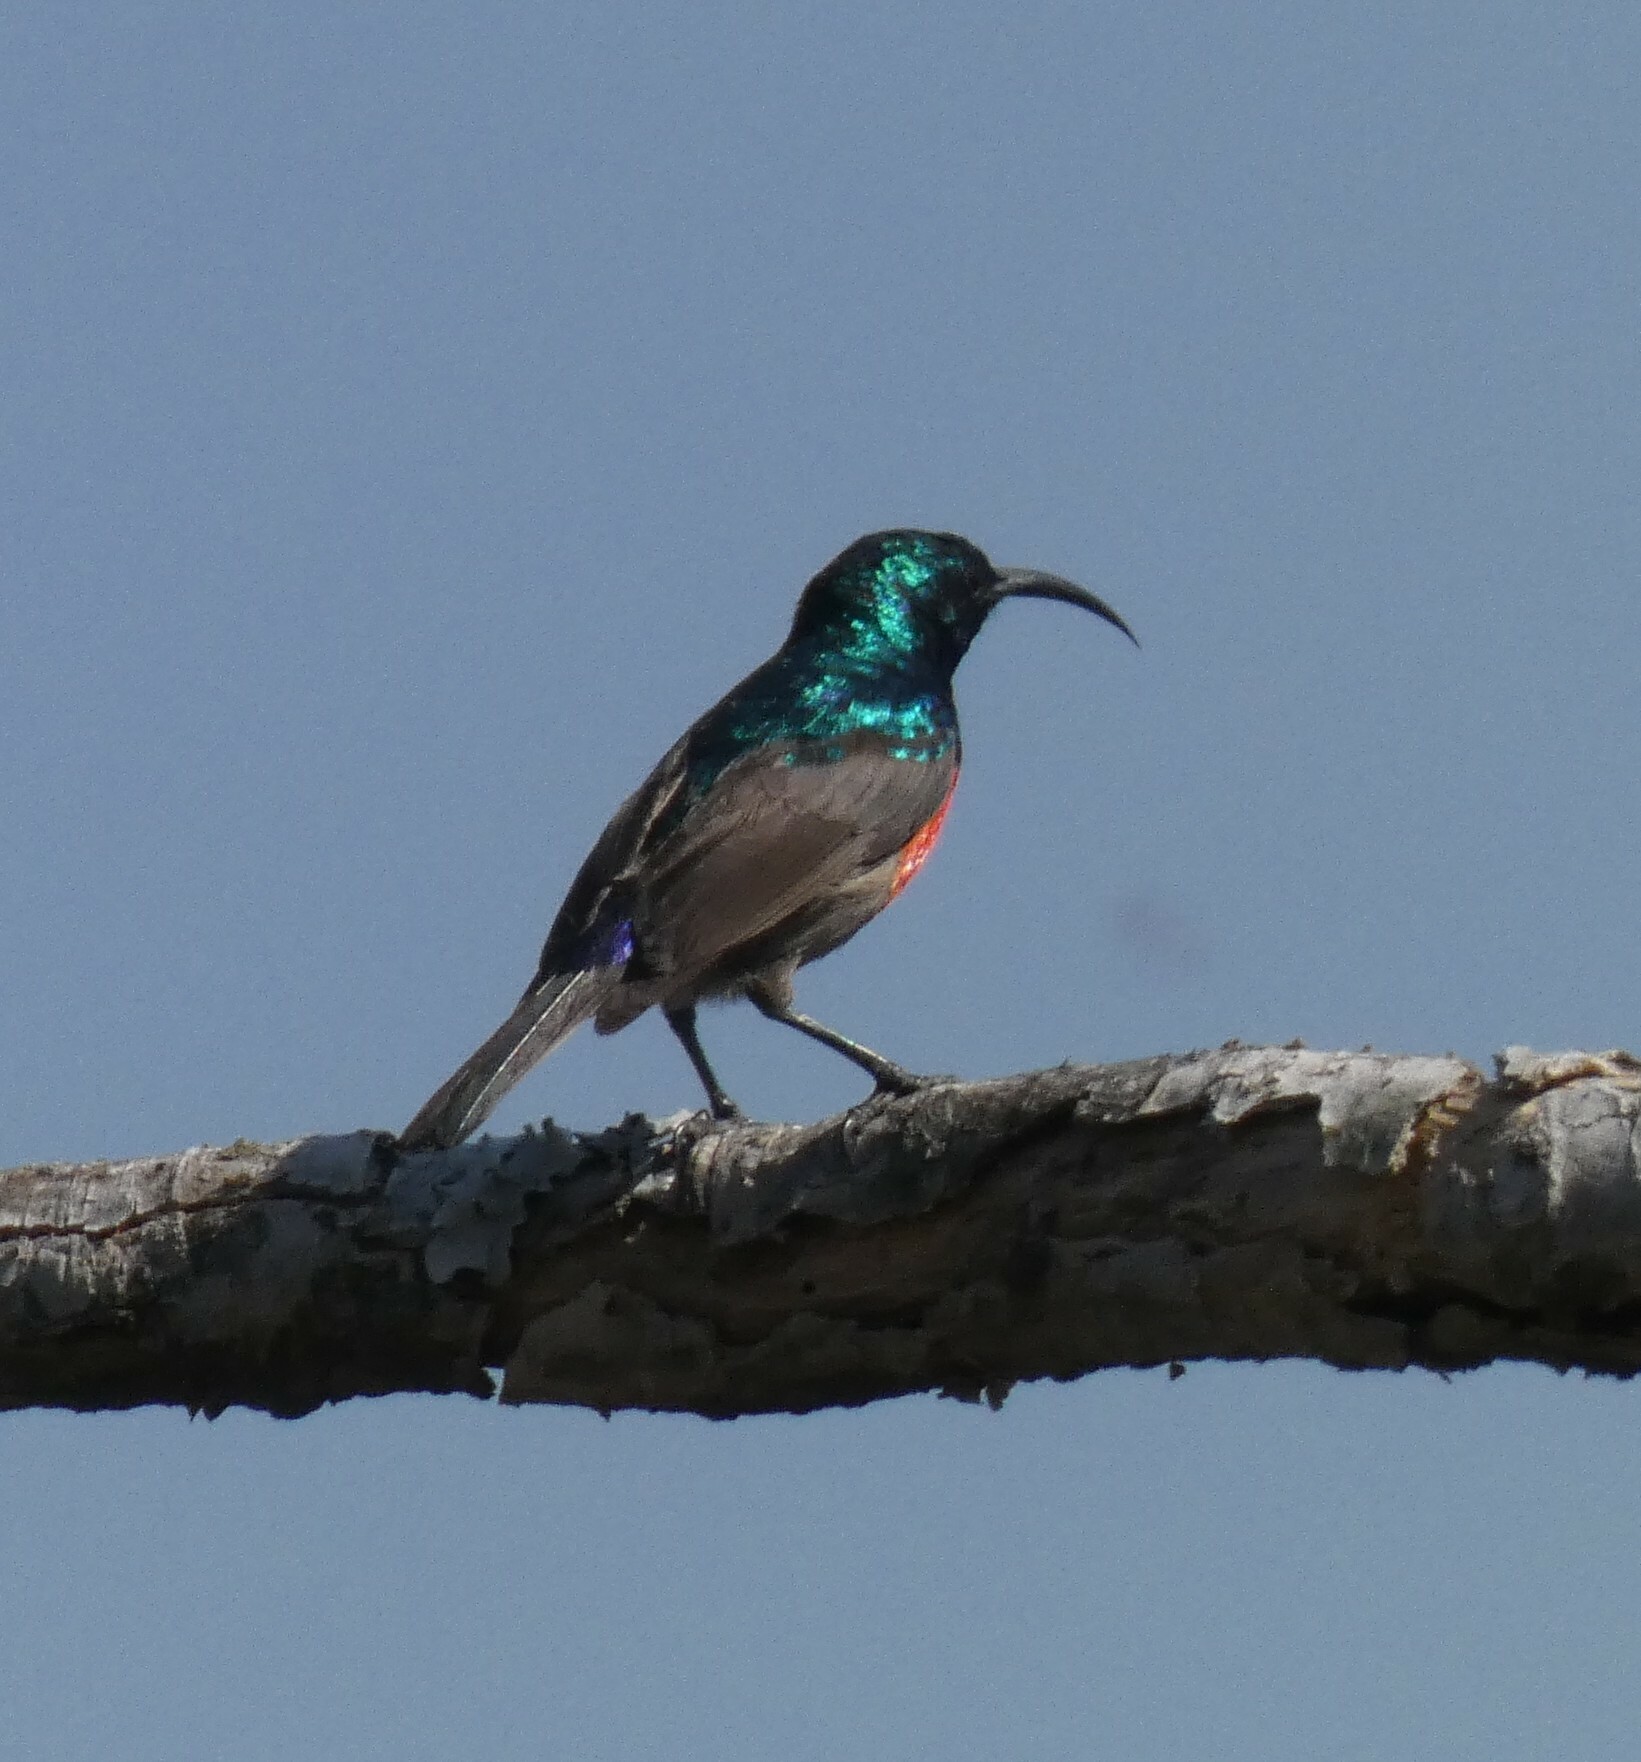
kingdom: Animalia
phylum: Chordata
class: Aves
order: Passeriformes
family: Nectariniidae
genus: Cinnyris
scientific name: Cinnyris afer
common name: Greater double-collared sunbird
